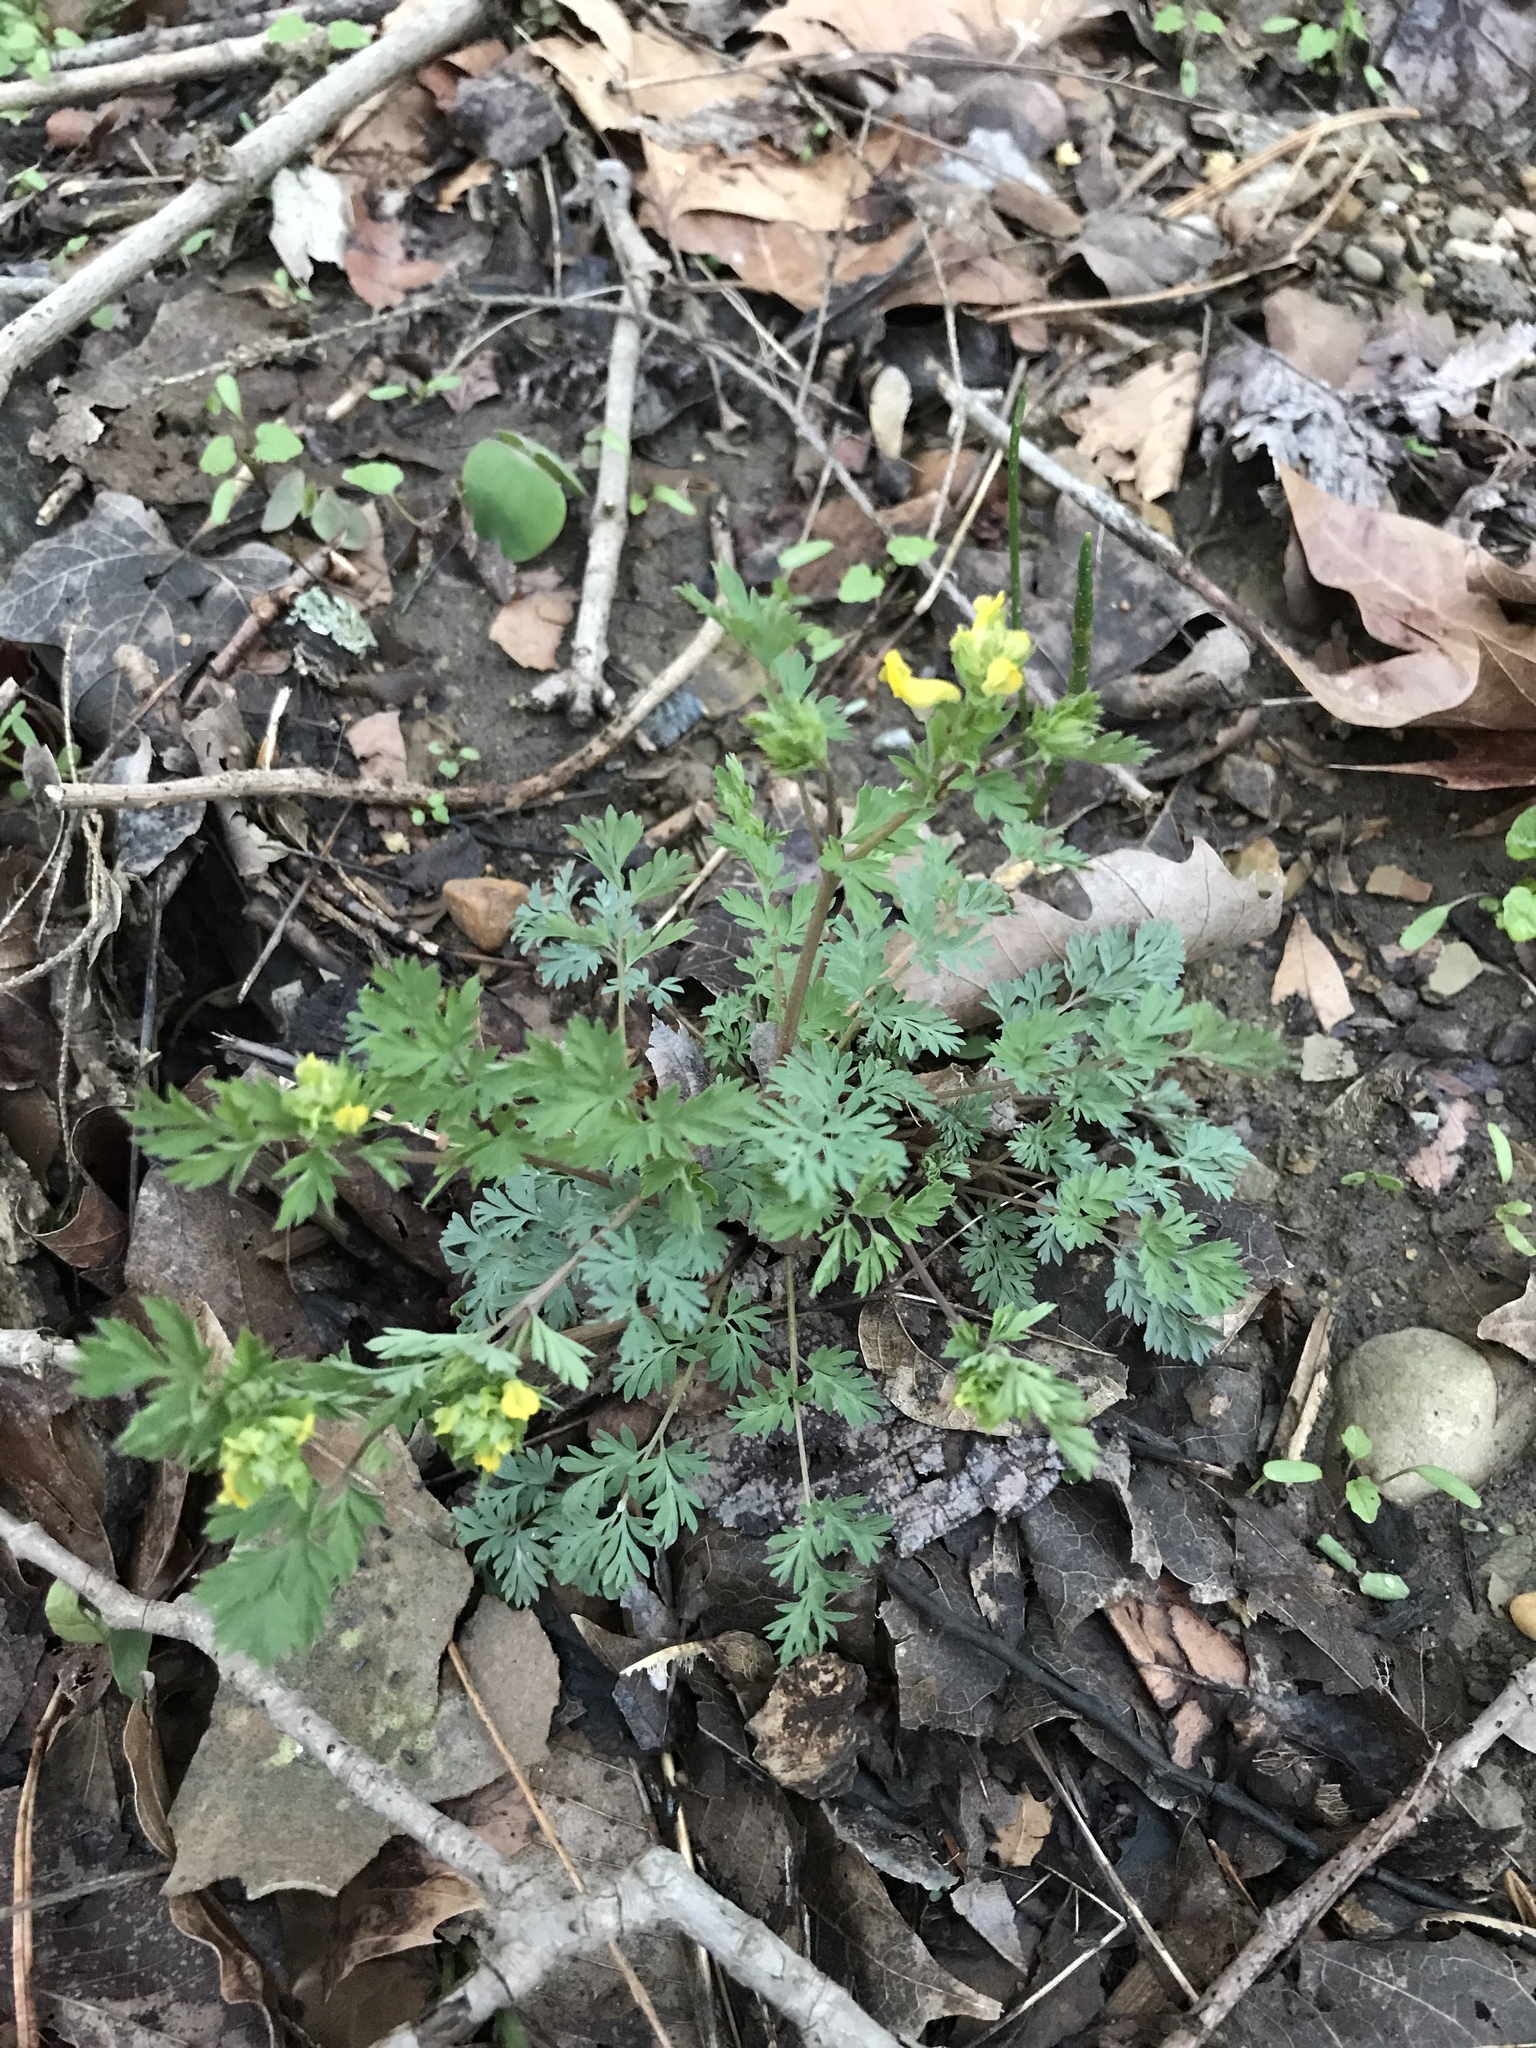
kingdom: Plantae
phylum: Tracheophyta
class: Magnoliopsida
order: Ranunculales
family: Papaveraceae
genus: Corydalis
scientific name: Corydalis flavula
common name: Yellow corydalis
